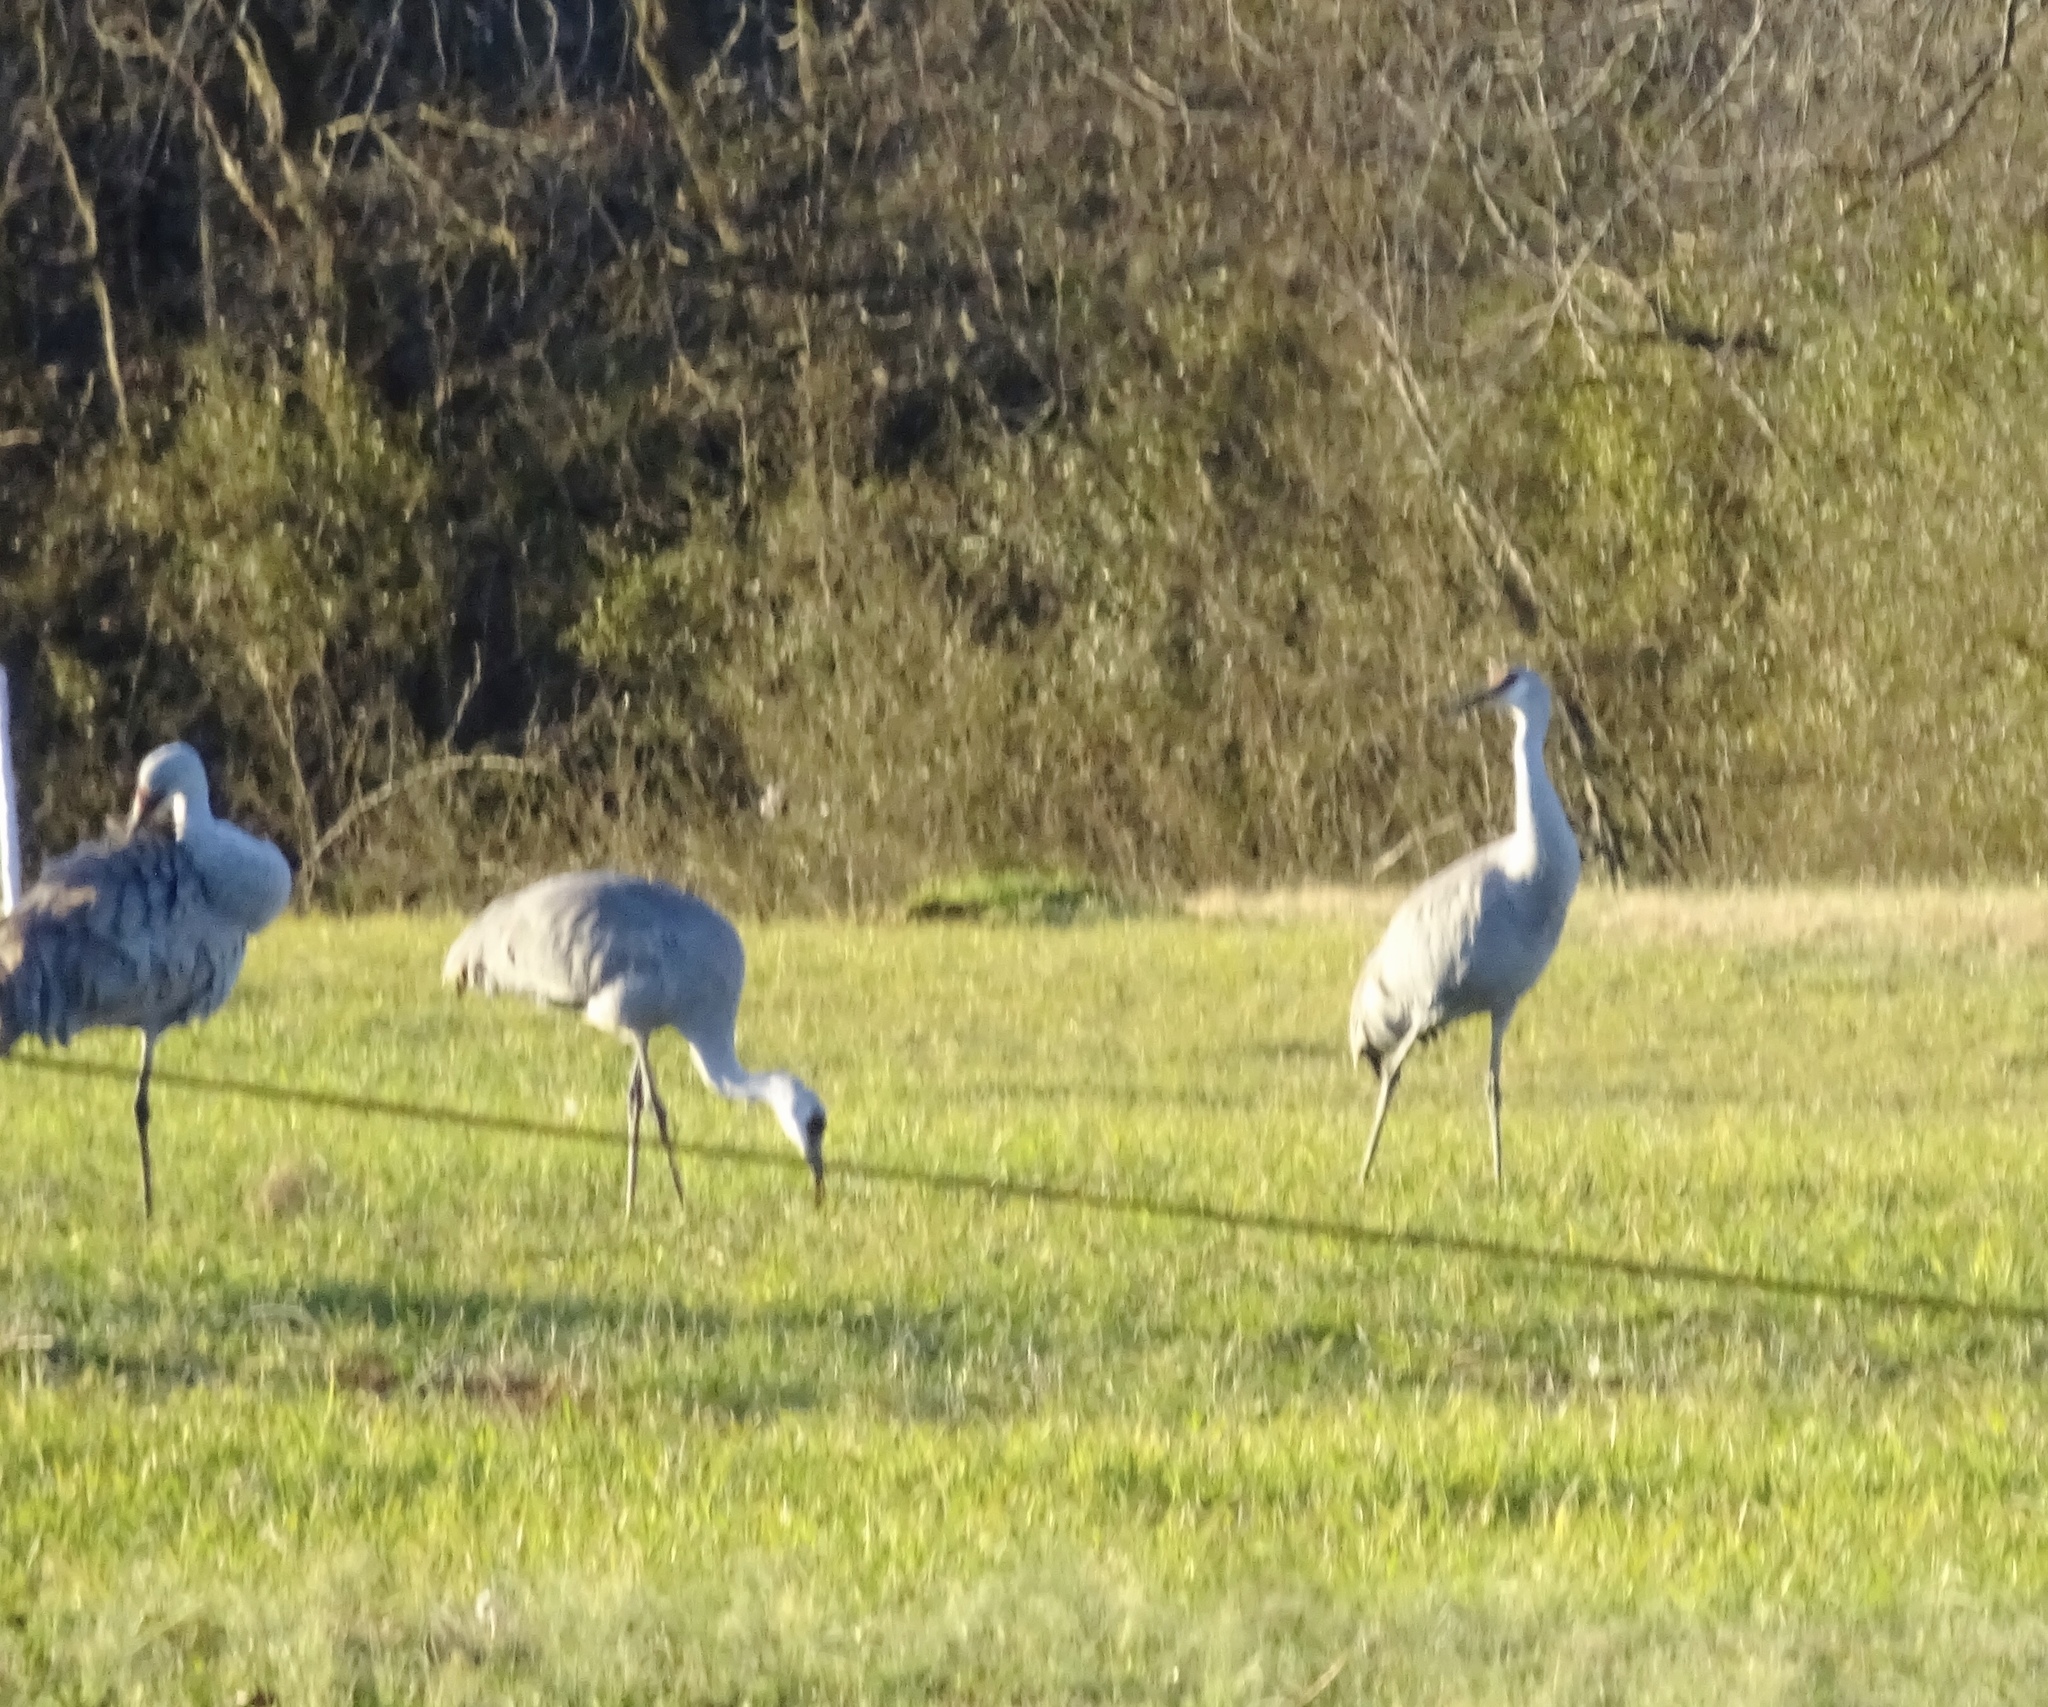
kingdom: Animalia
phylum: Chordata
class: Aves
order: Gruiformes
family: Gruidae
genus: Grus
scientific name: Grus canadensis
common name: Sandhill crane
